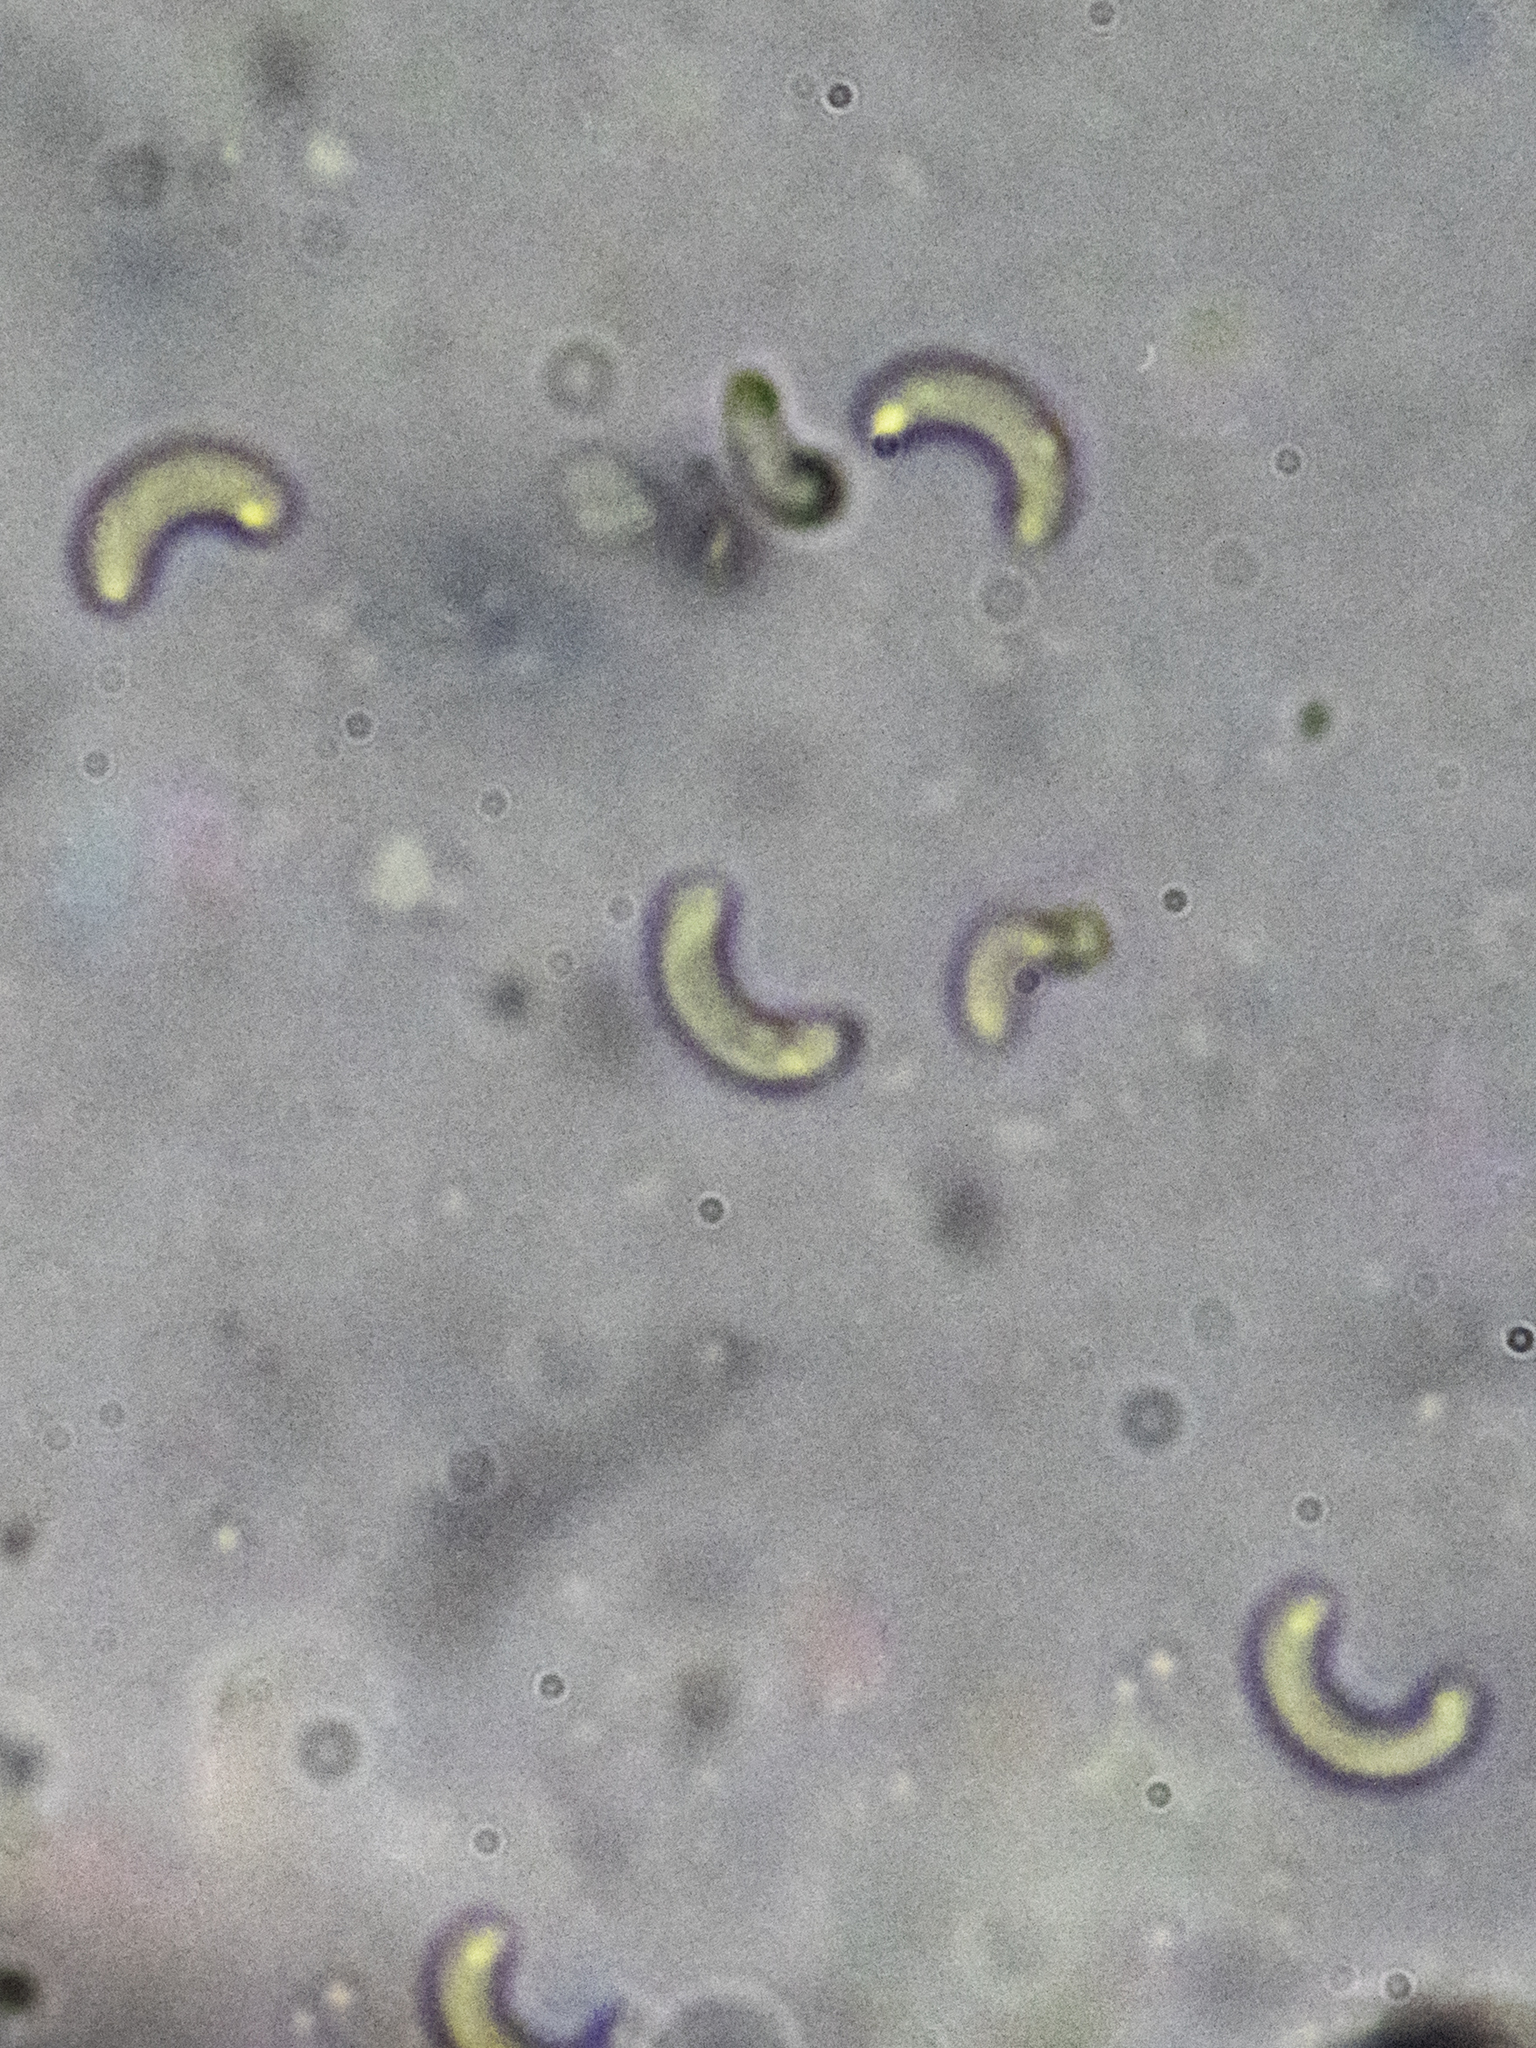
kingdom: Fungi
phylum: Ascomycota
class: Sordariomycetes
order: Xylariales
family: Diatrypaceae
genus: Diatrypella
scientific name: Diatrypella quercina
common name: Oak blackhead
